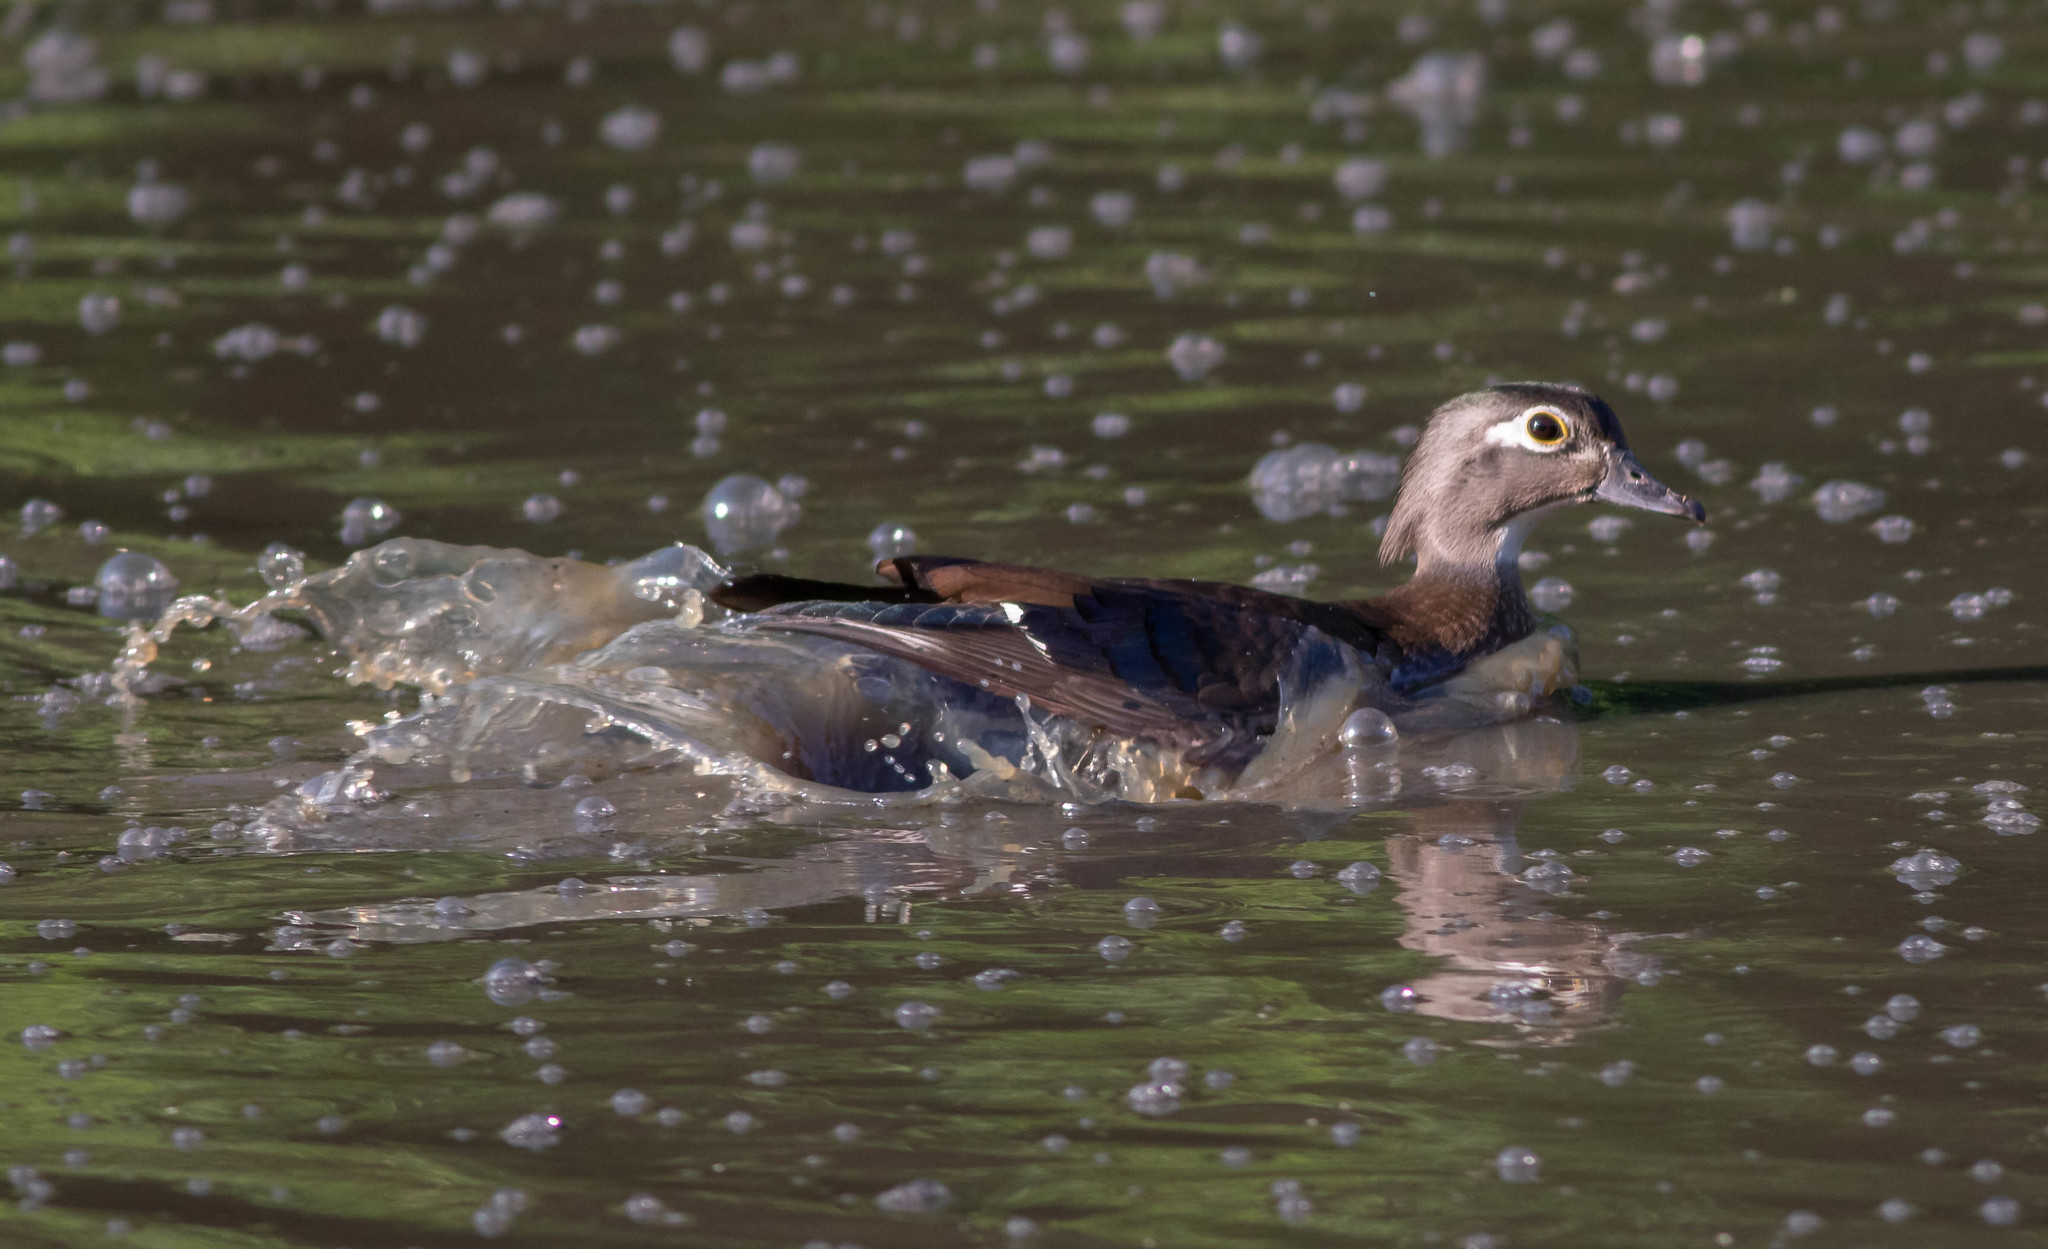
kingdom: Animalia
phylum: Chordata
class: Aves
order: Anseriformes
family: Anatidae
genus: Aix
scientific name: Aix sponsa
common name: Wood duck
